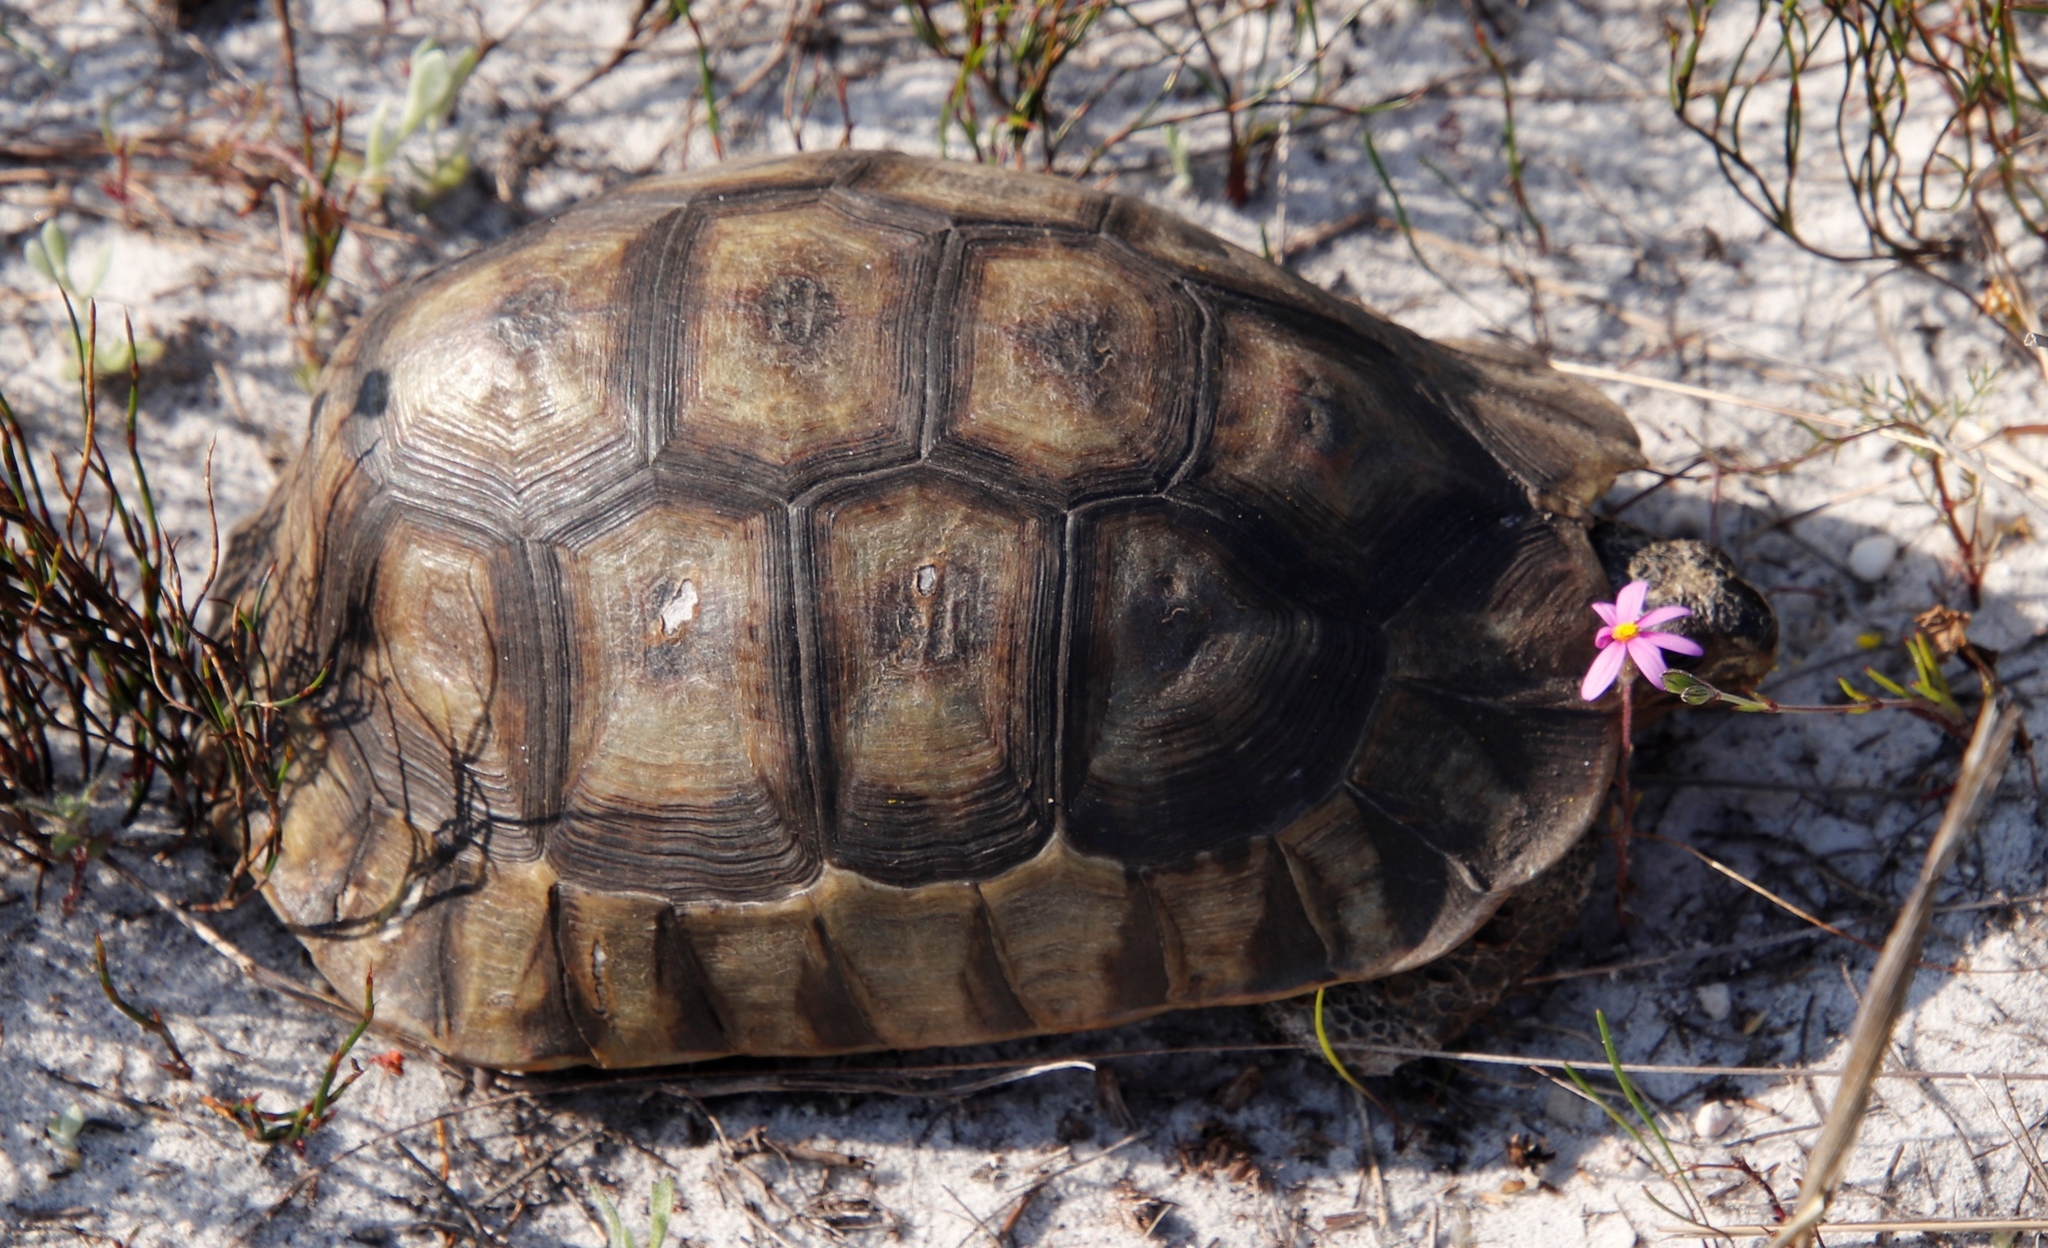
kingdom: Animalia
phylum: Chordata
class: Testudines
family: Testudinidae
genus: Chersina
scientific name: Chersina angulata
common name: South african bowsprit tortoise
